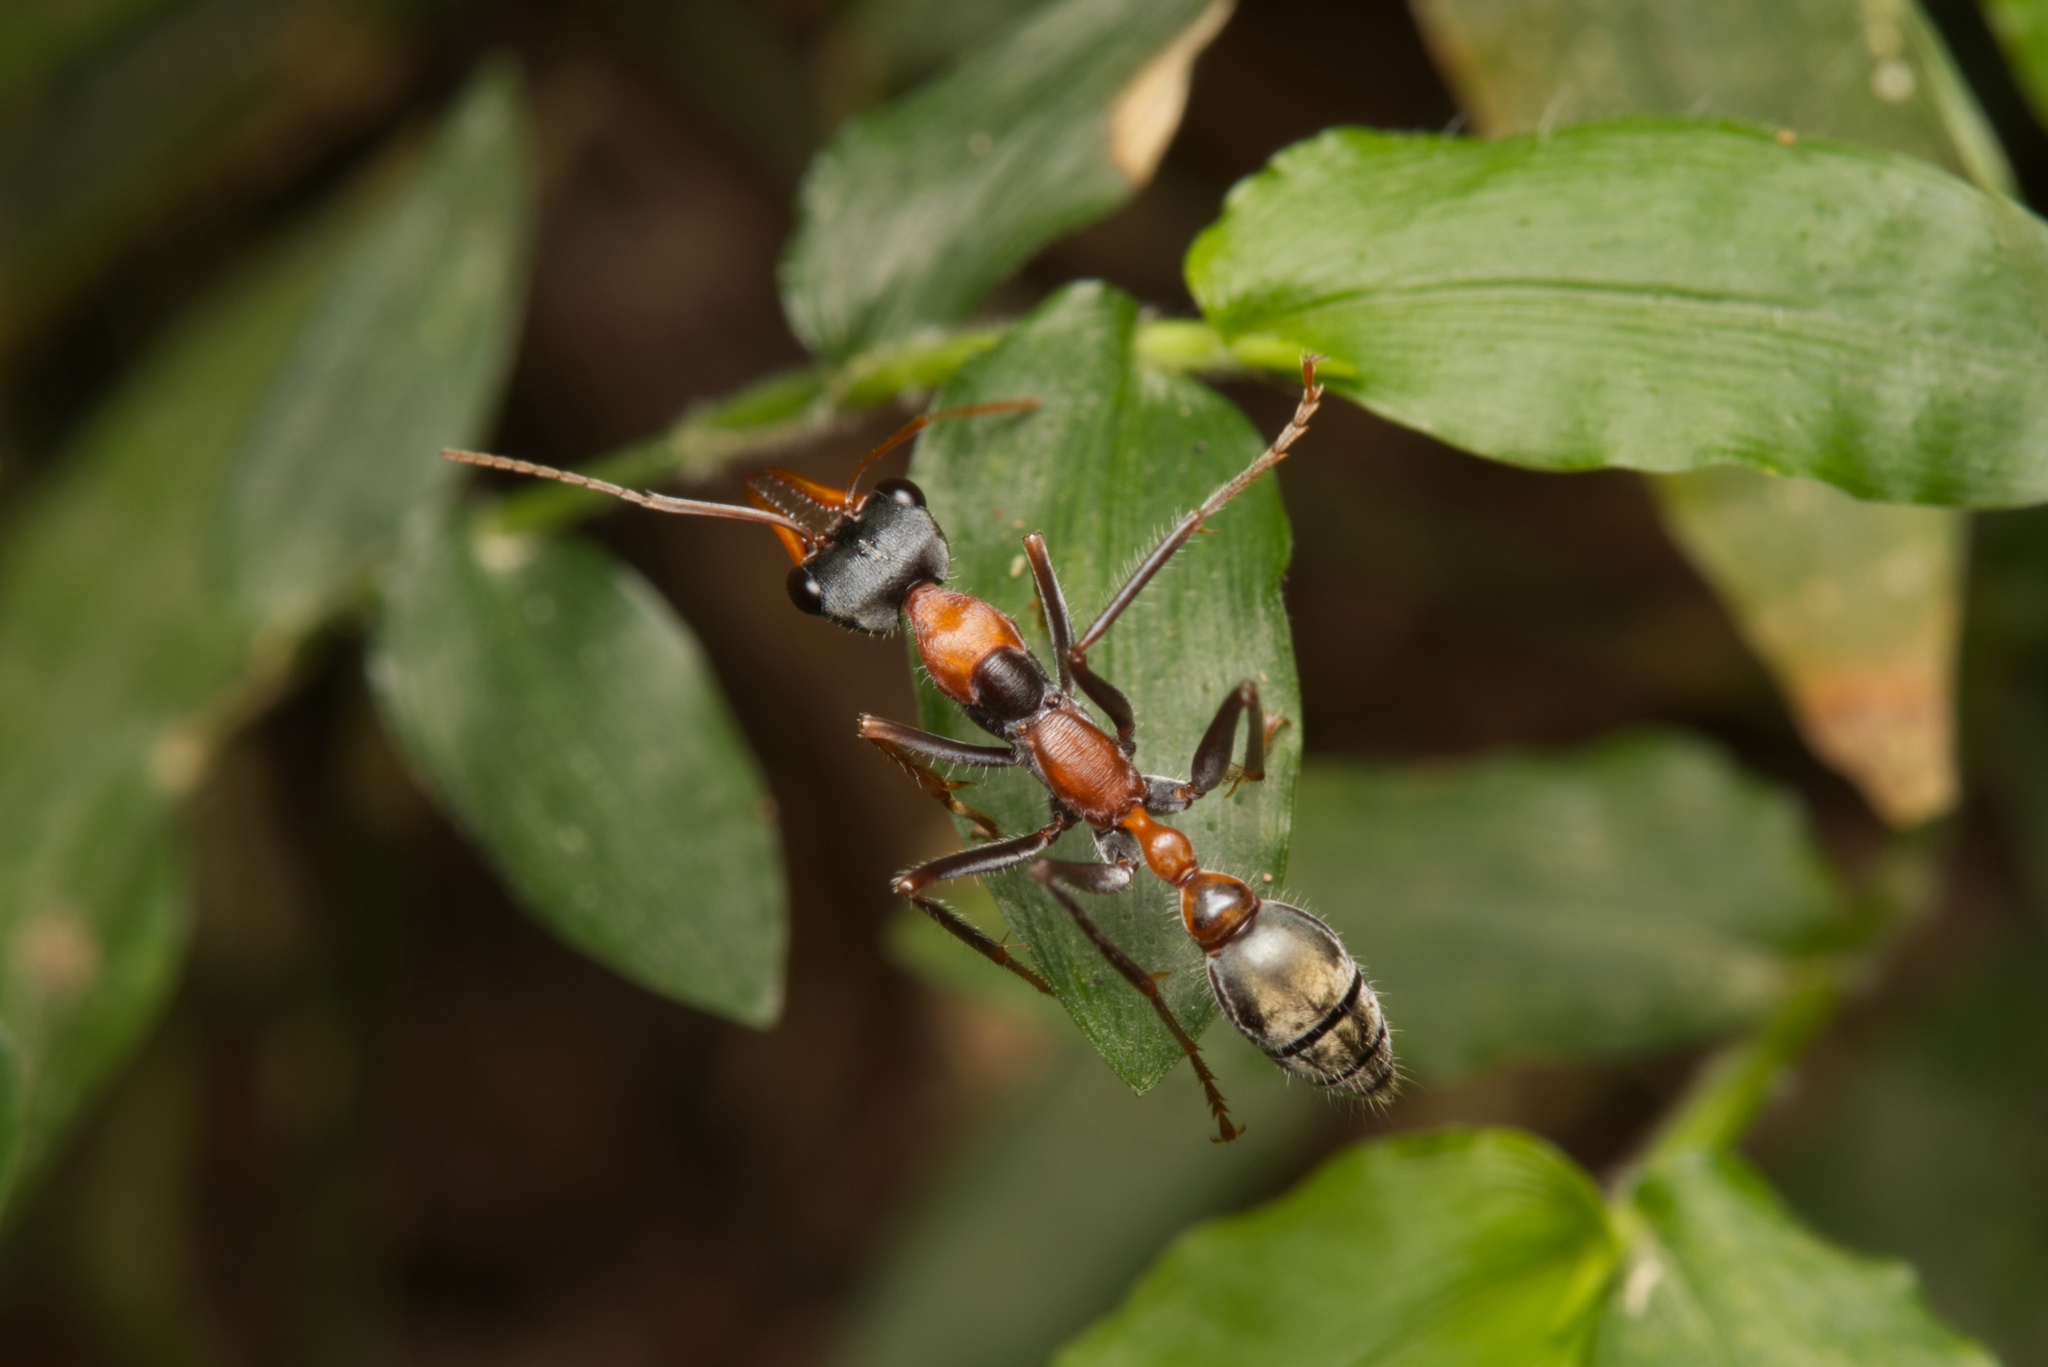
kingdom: Animalia
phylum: Arthropoda
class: Insecta
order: Hymenoptera
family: Formicidae
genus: Myrmecia
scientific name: Myrmecia nigrocincta
